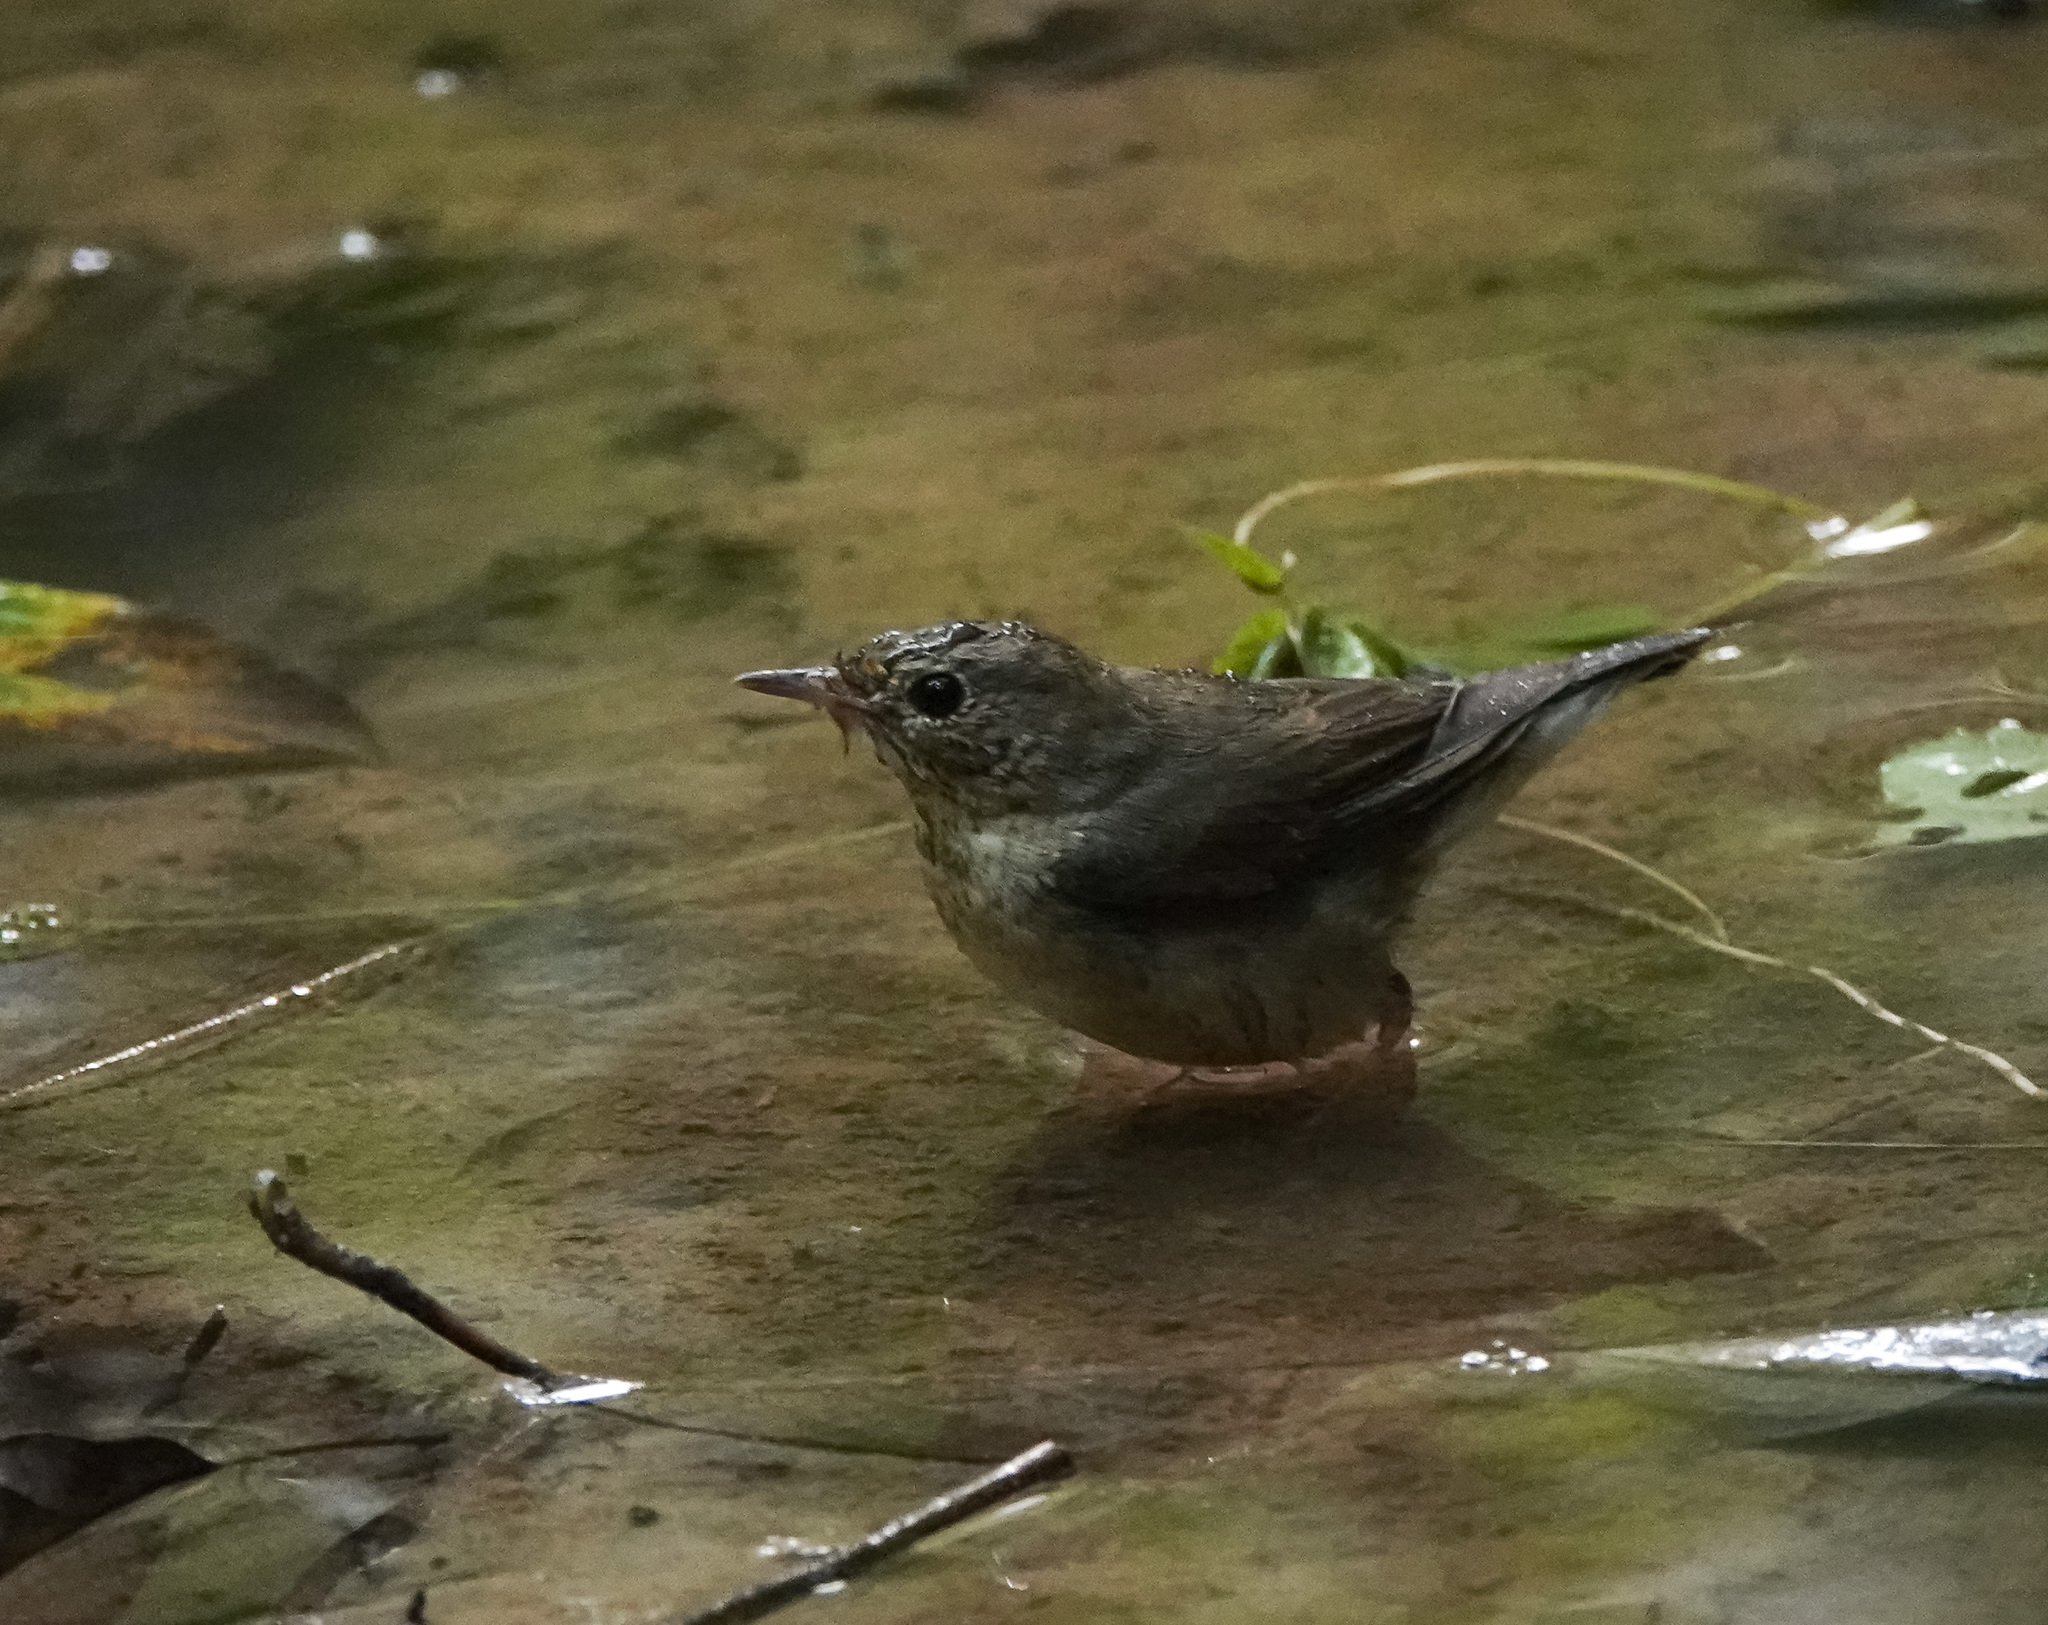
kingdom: Animalia
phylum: Chordata
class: Aves
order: Passeriformes
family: Muscicapidae
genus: Luscinia
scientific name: Luscinia cyane
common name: Siberian blue robin
